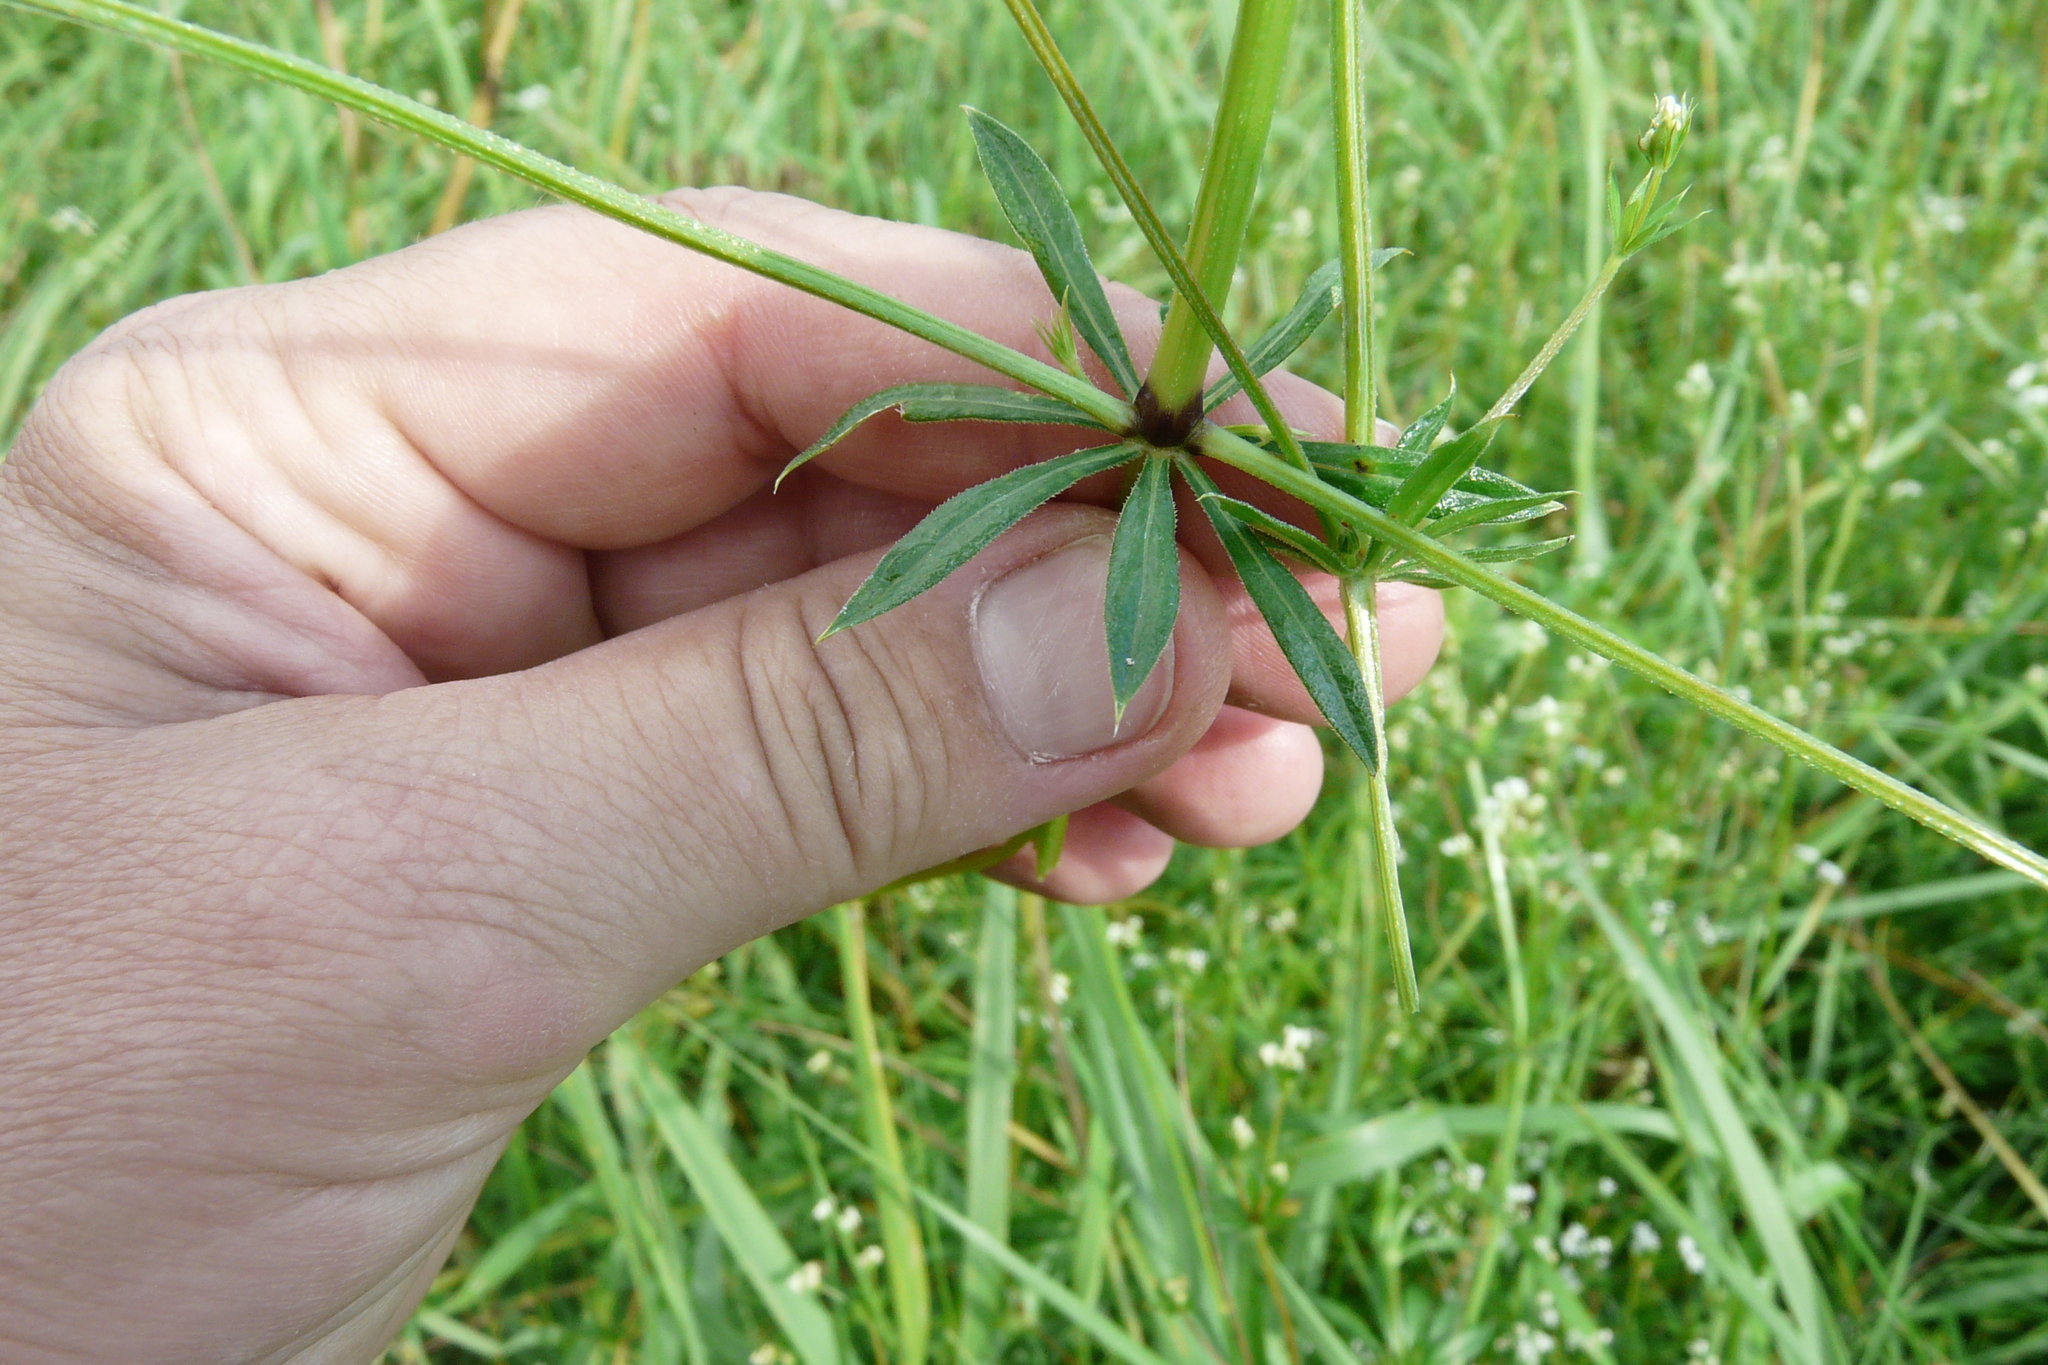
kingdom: Plantae
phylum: Tracheophyta
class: Magnoliopsida
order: Gentianales
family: Rubiaceae
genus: Galium
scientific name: Galium rivale
